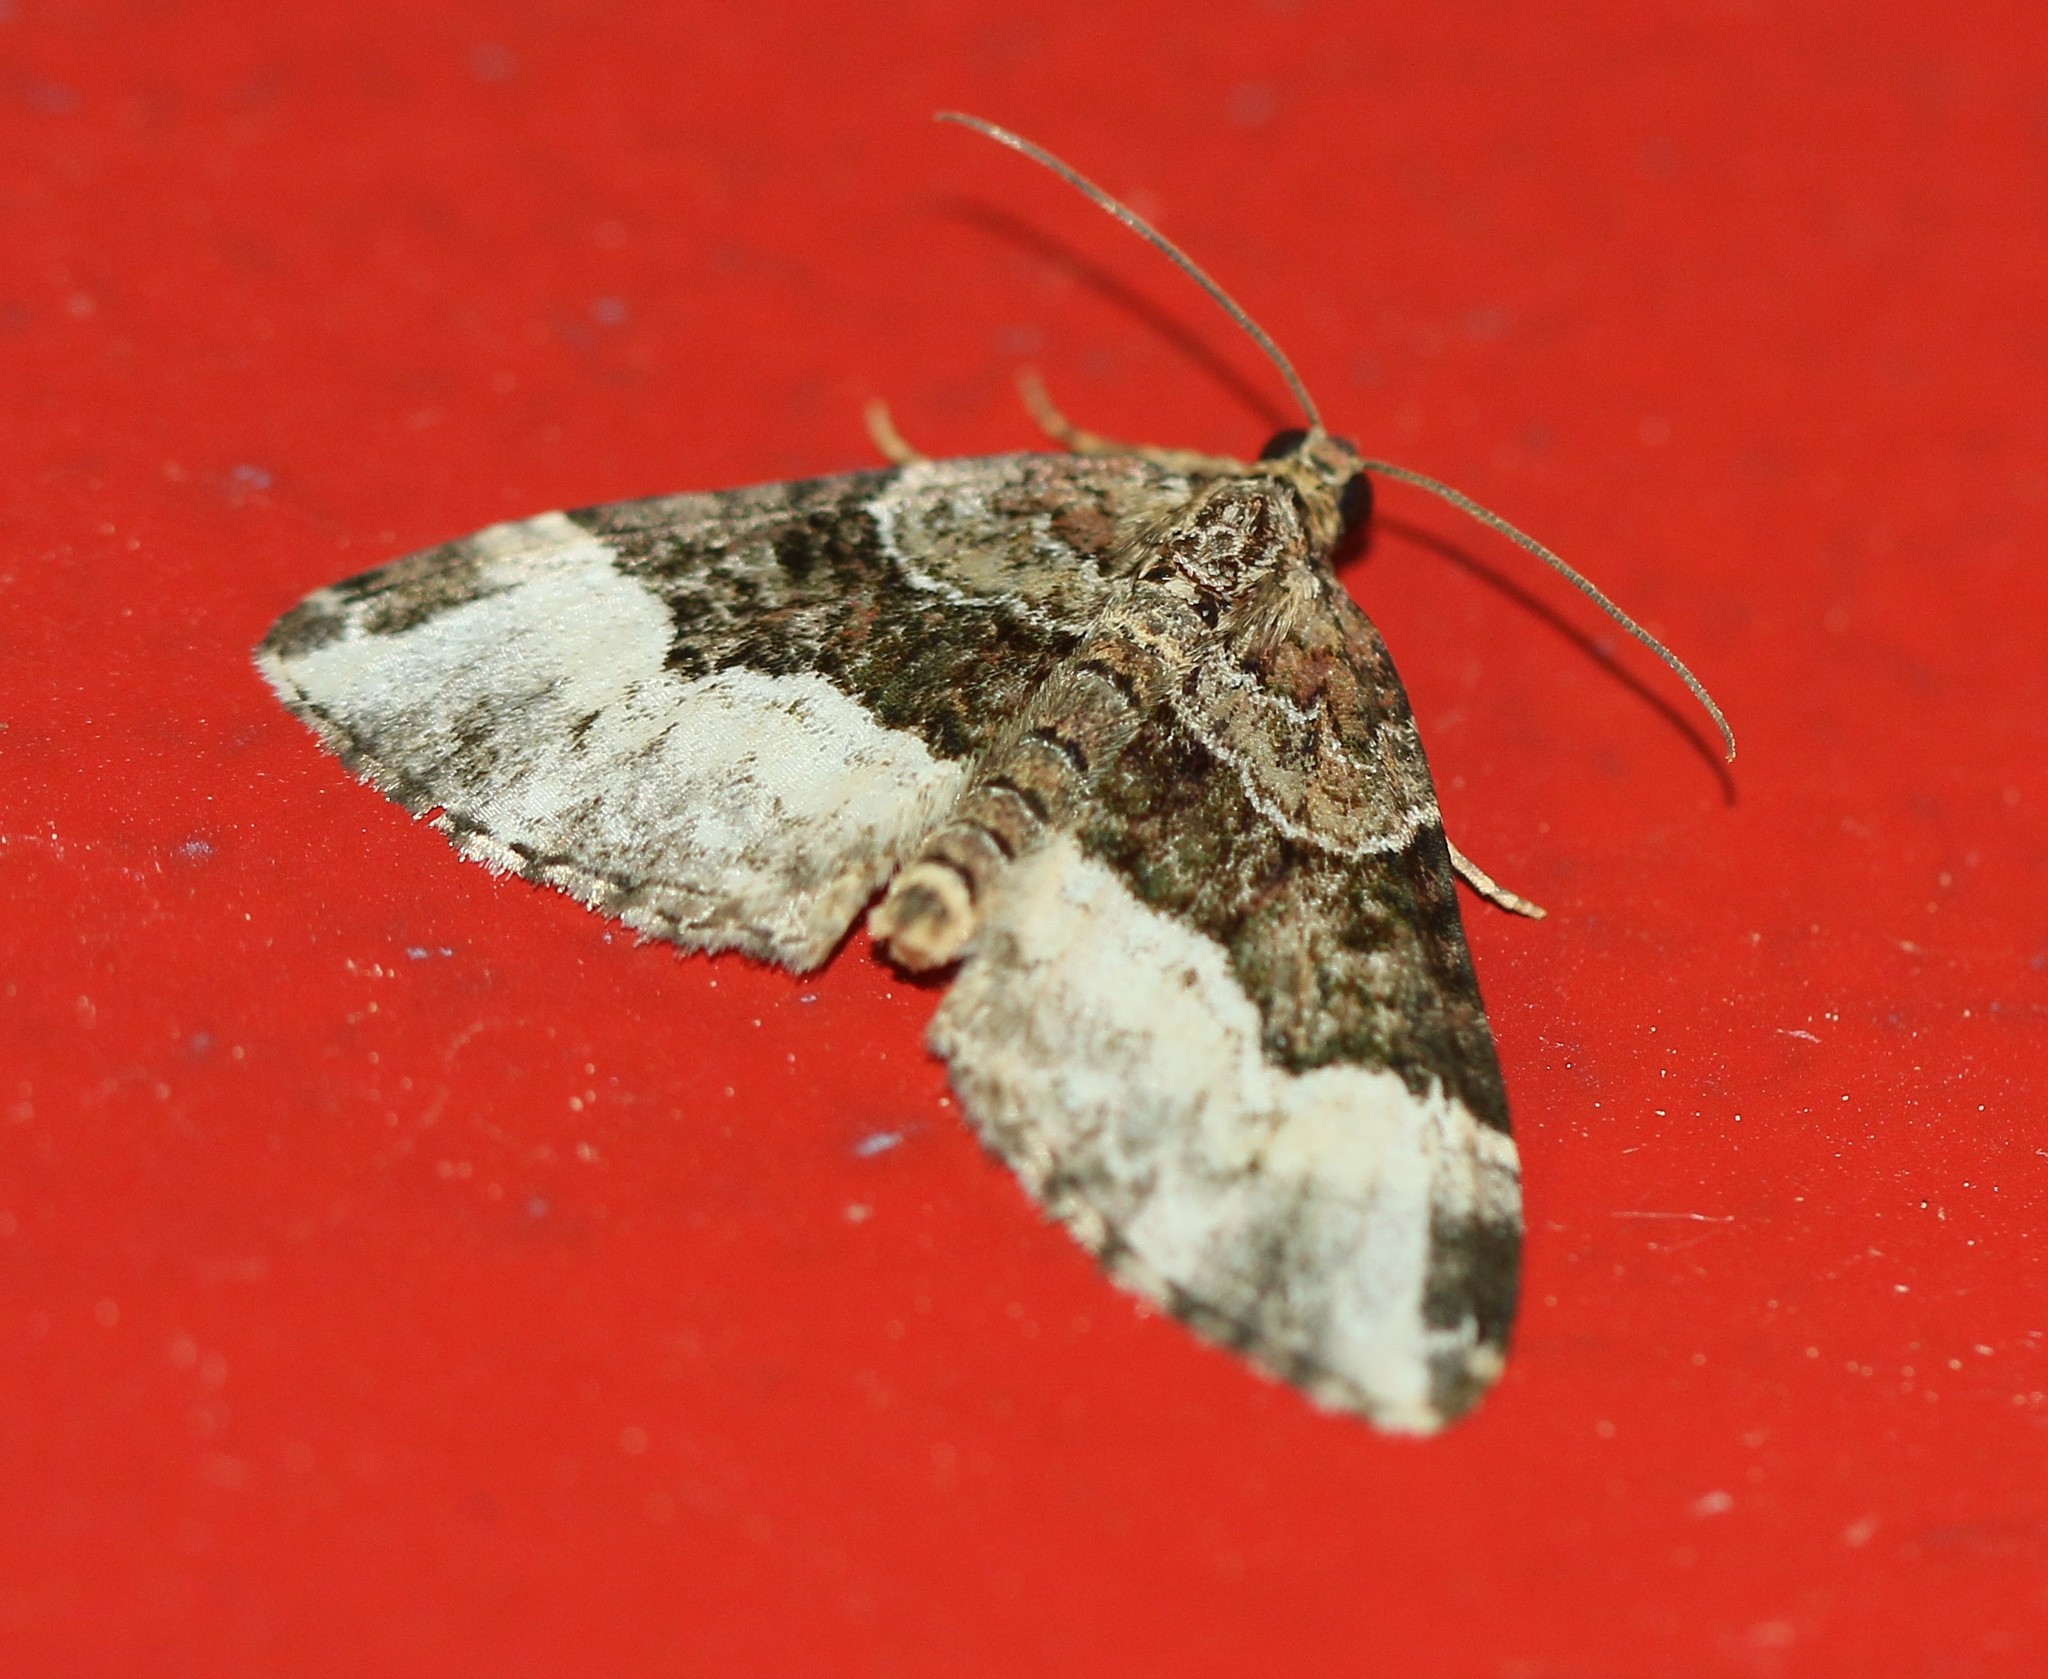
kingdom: Animalia
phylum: Arthropoda
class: Insecta
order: Lepidoptera
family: Geometridae
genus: Epirrhoe
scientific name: Epirrhoe alternata
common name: Common carpet
